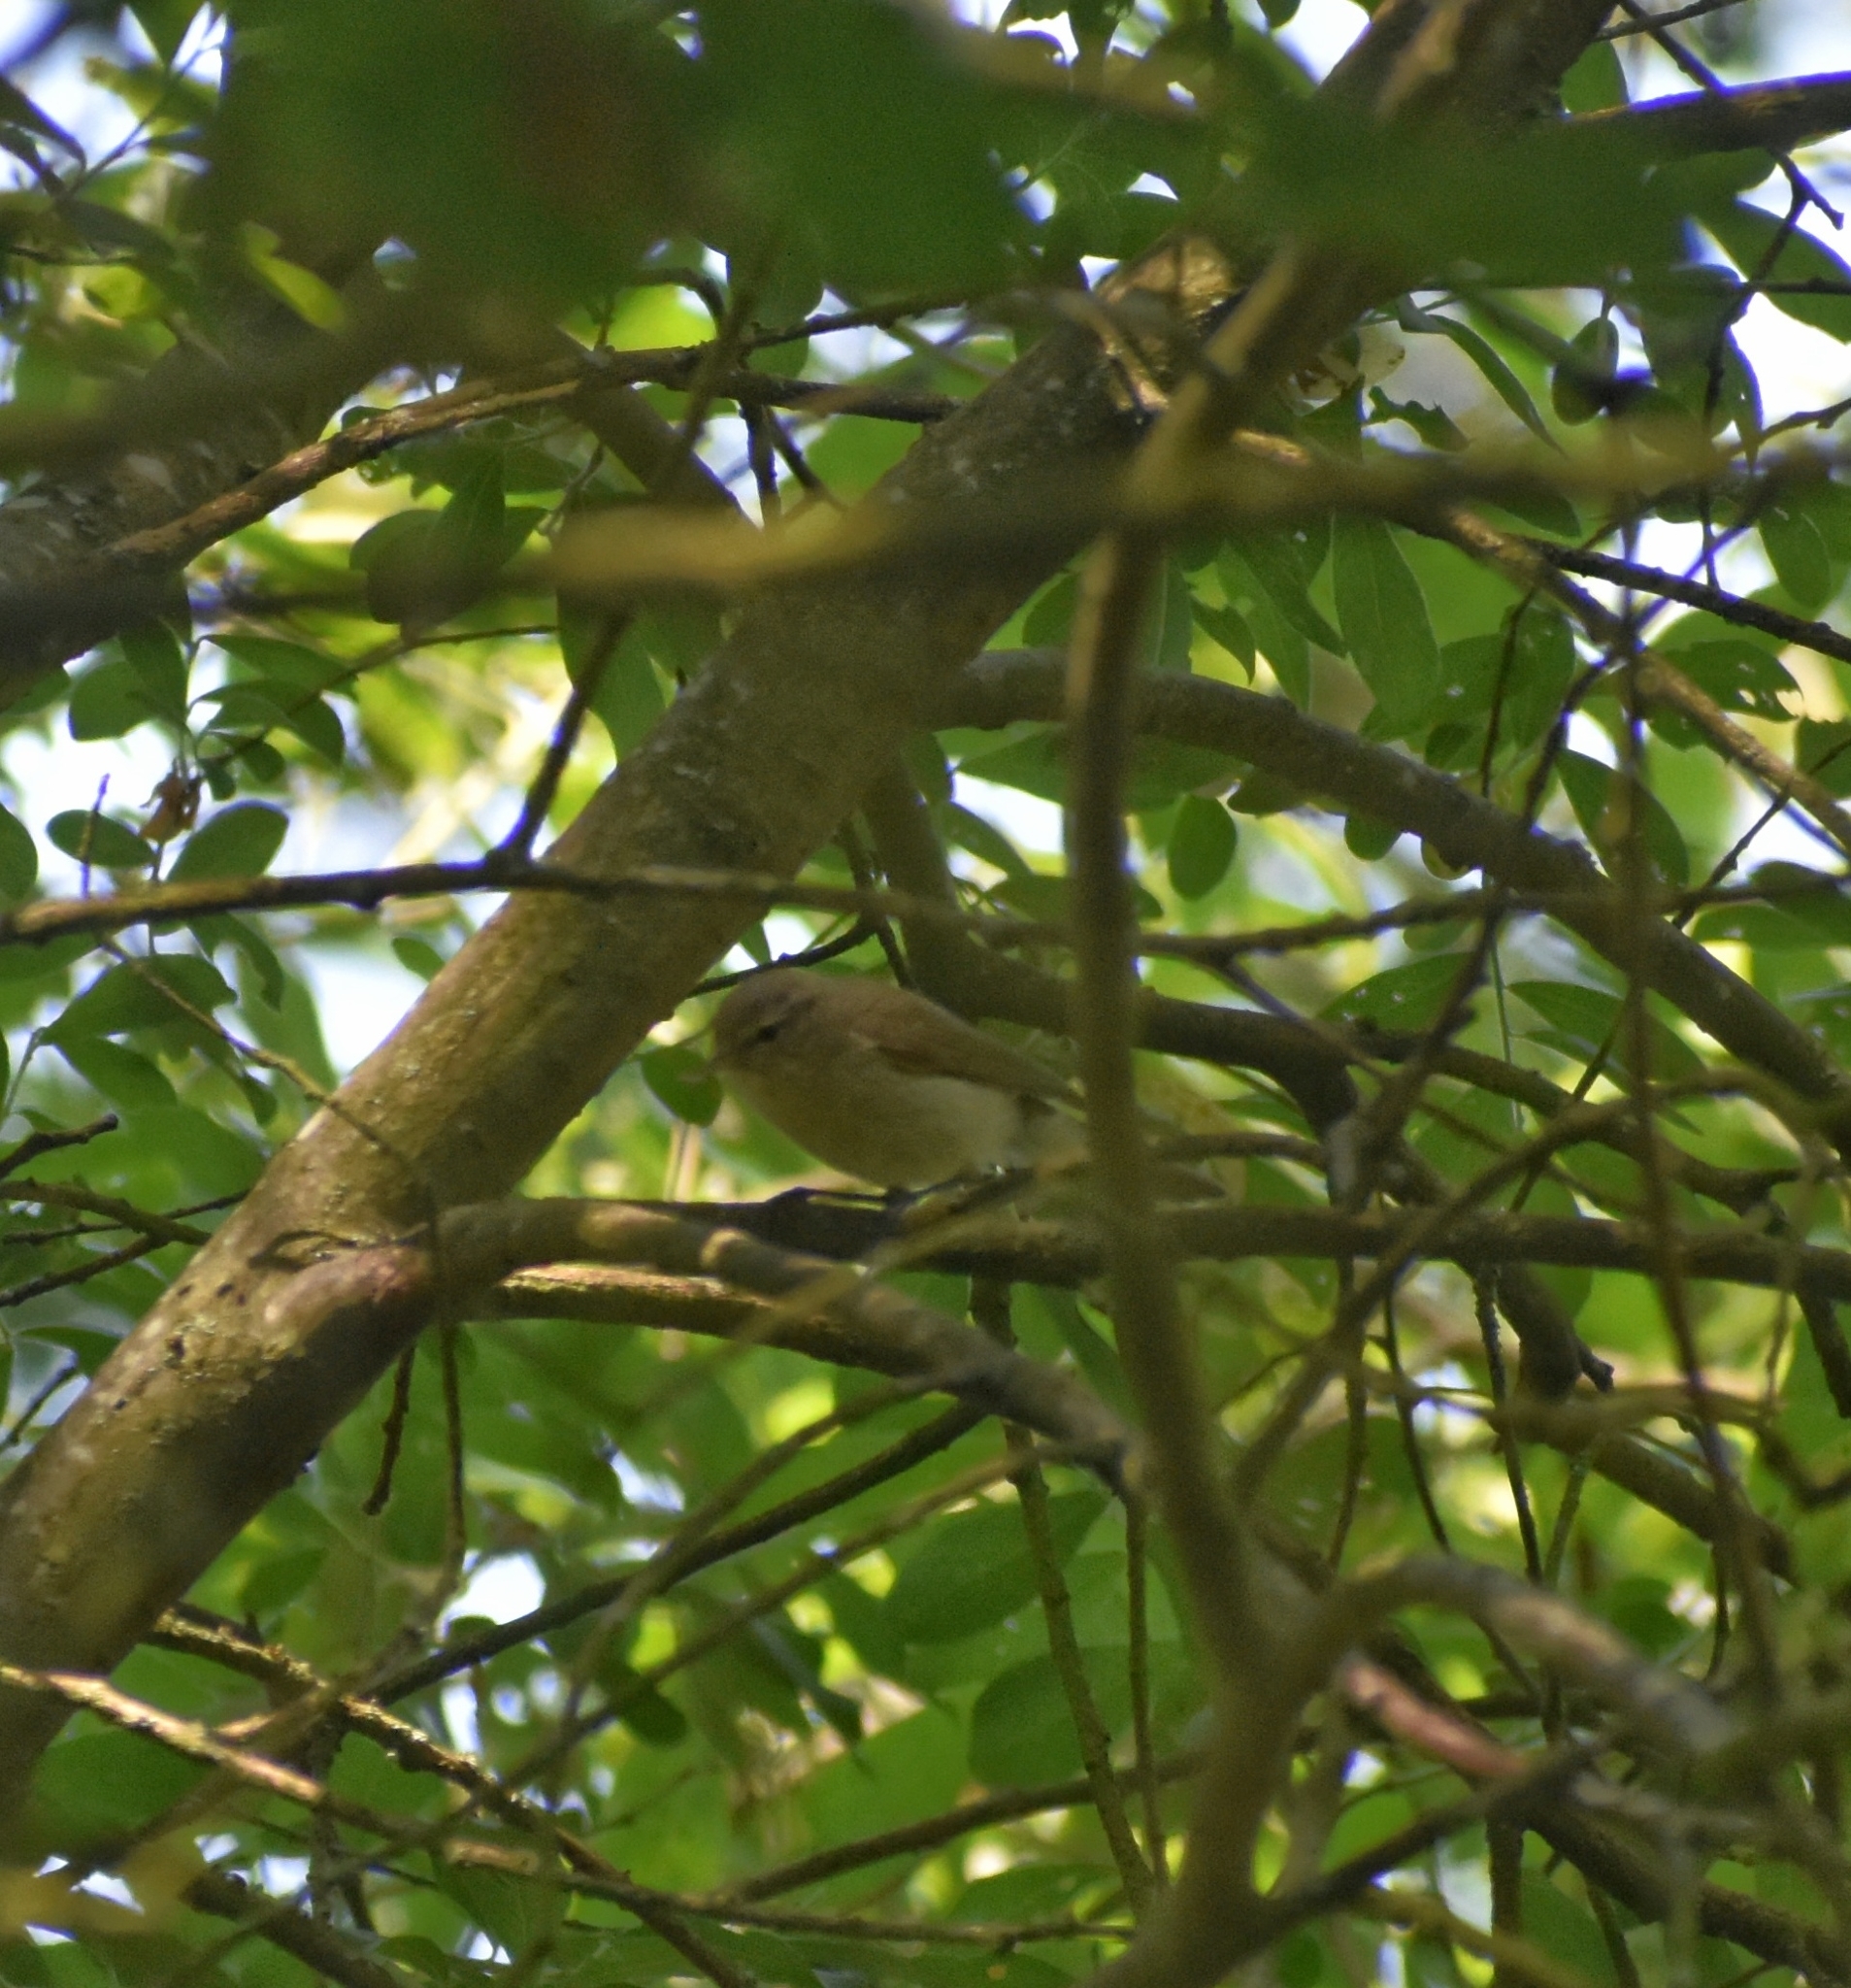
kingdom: Animalia
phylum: Chordata
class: Aves
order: Passeriformes
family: Phylloscopidae
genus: Phylloscopus
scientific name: Phylloscopus collybita
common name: Common chiffchaff
